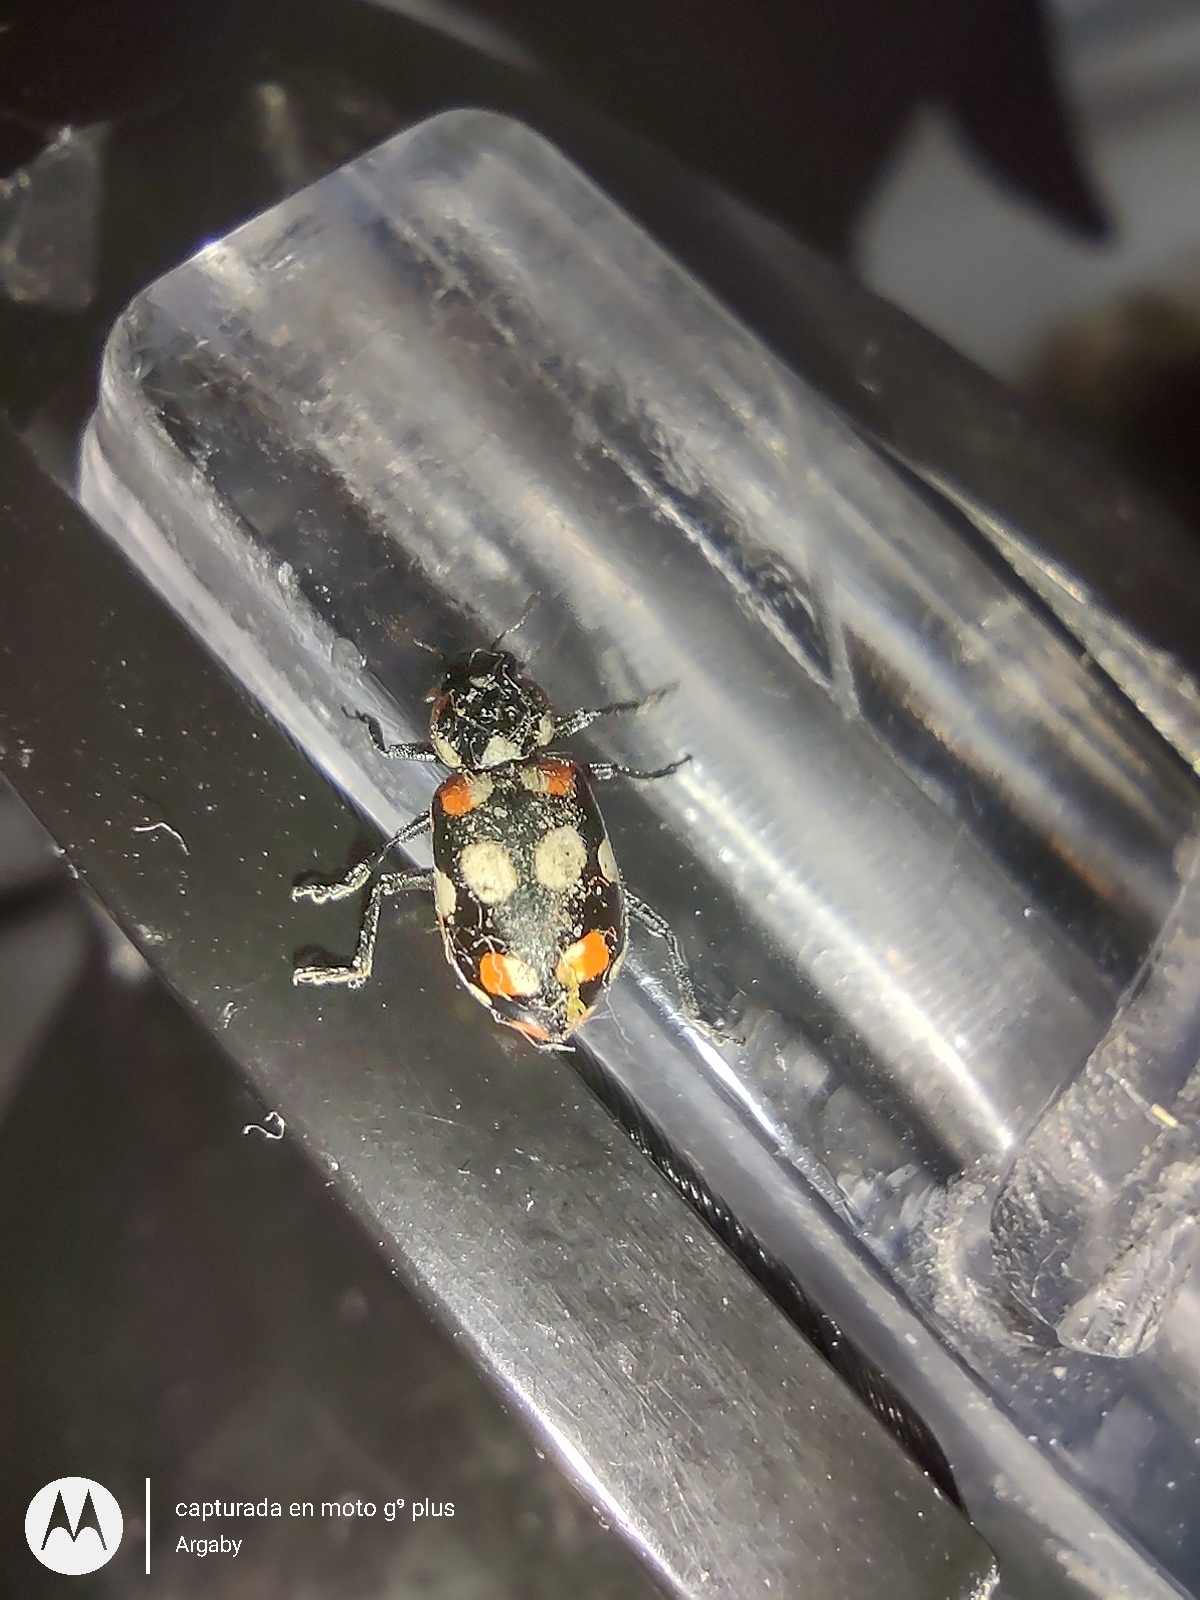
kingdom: Animalia
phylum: Arthropoda
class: Insecta
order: Coleoptera
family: Coccinellidae
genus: Eriopis
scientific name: Eriopis connexa
